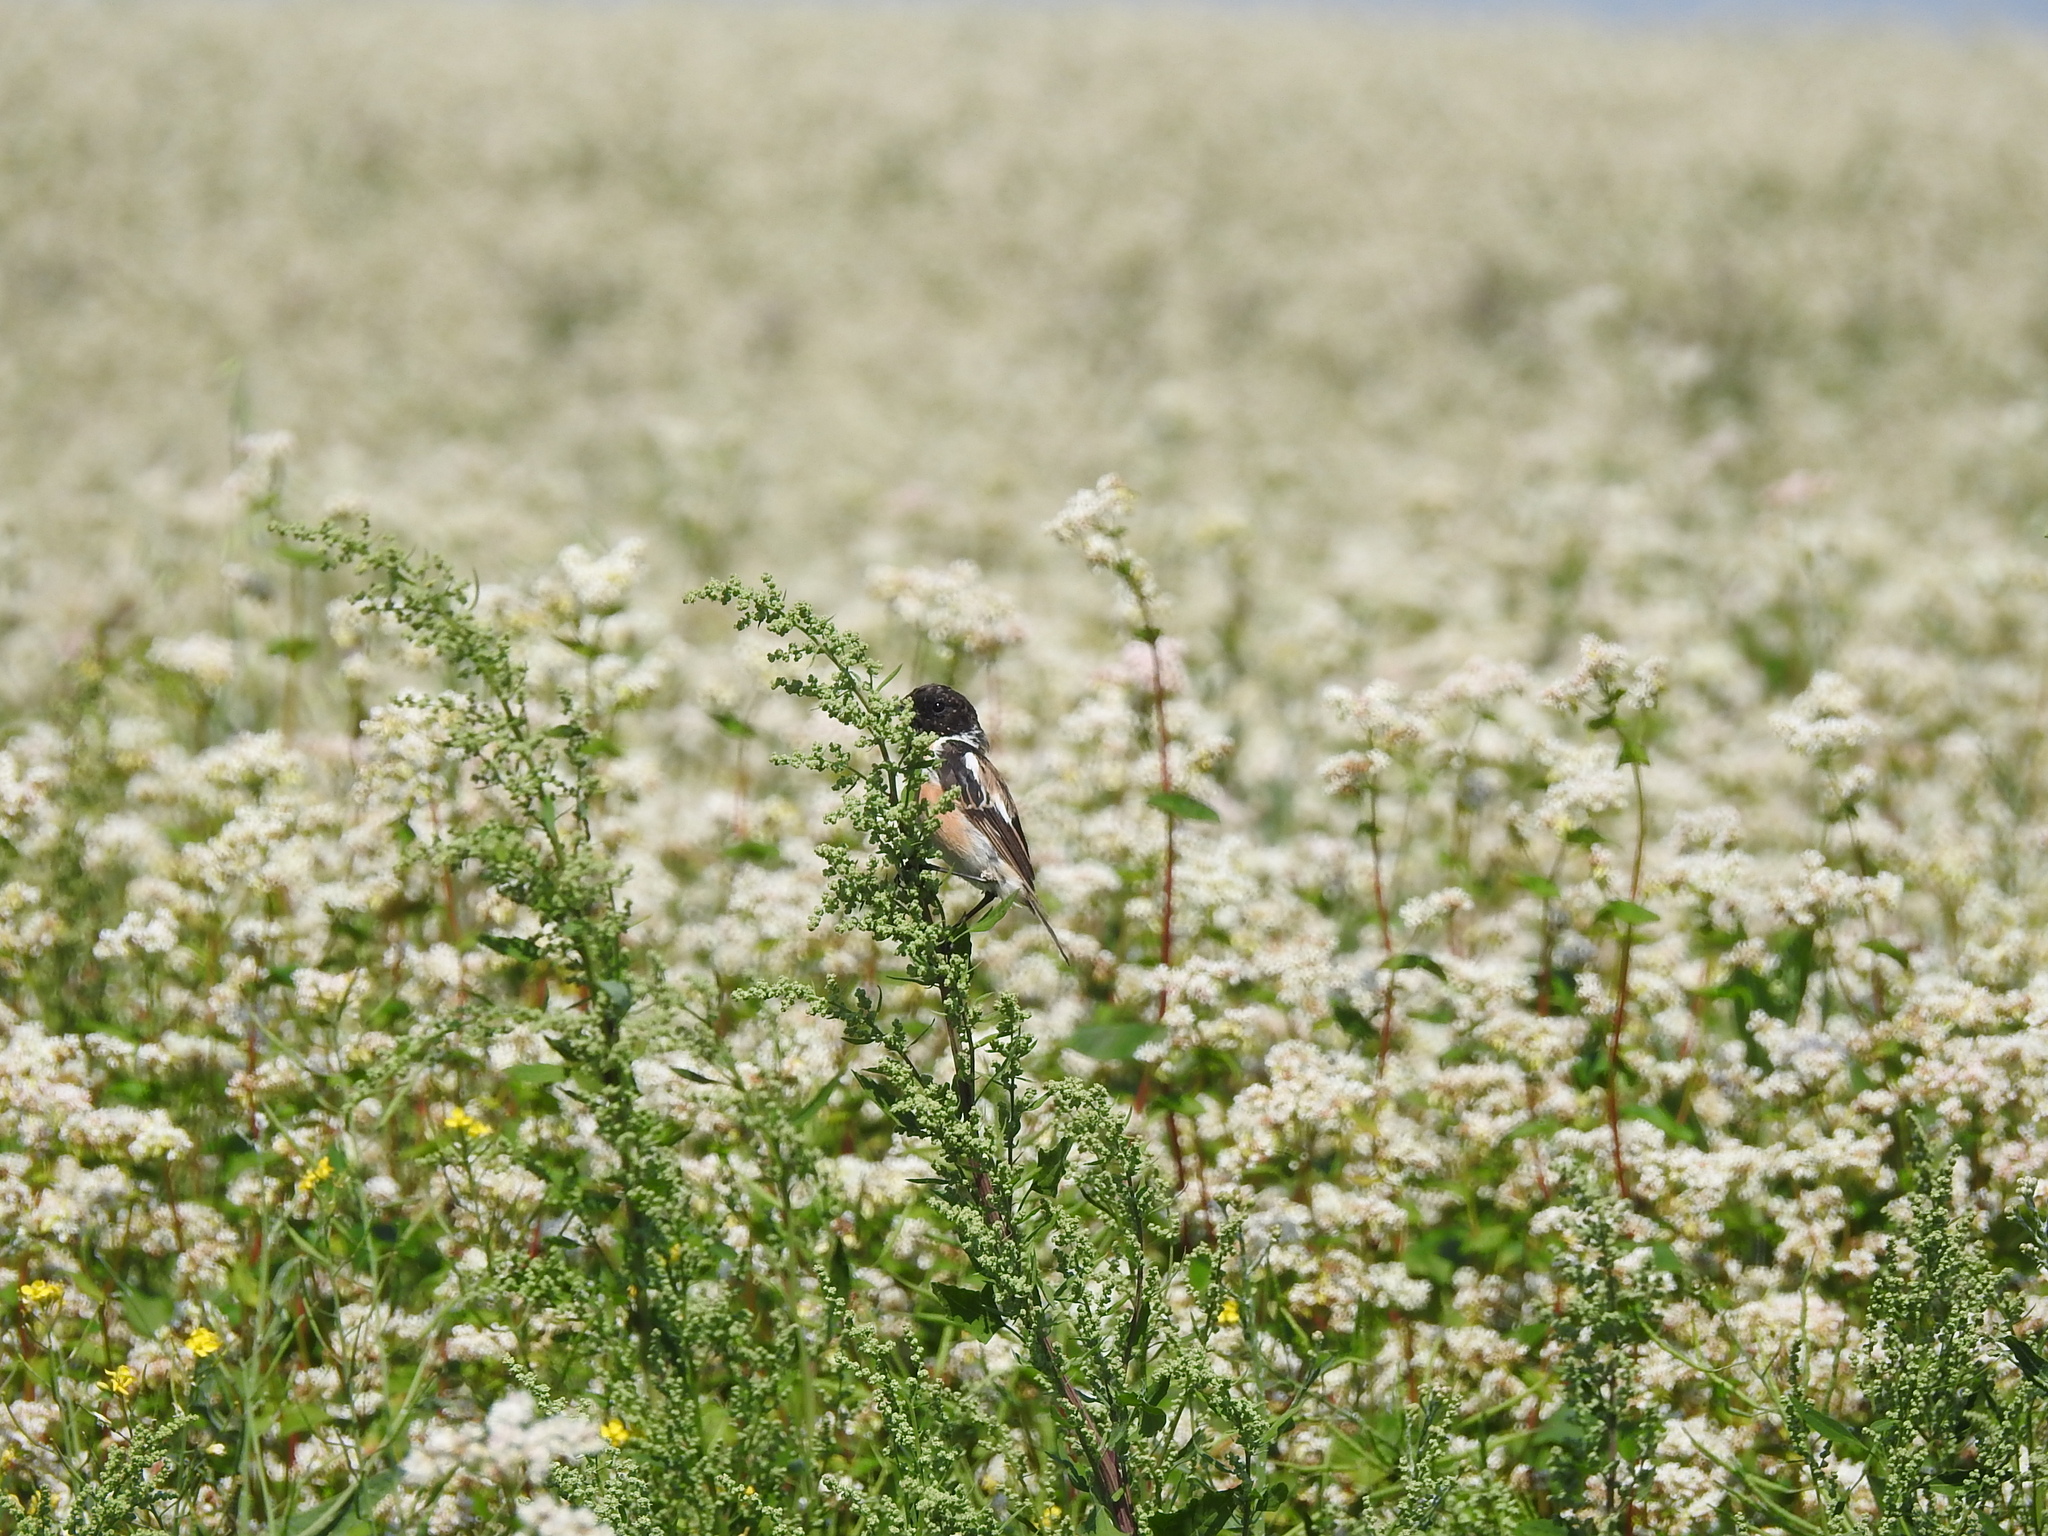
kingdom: Animalia
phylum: Chordata
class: Aves
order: Passeriformes
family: Muscicapidae
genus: Saxicola
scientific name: Saxicola maurus
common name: Siberian stonechat
